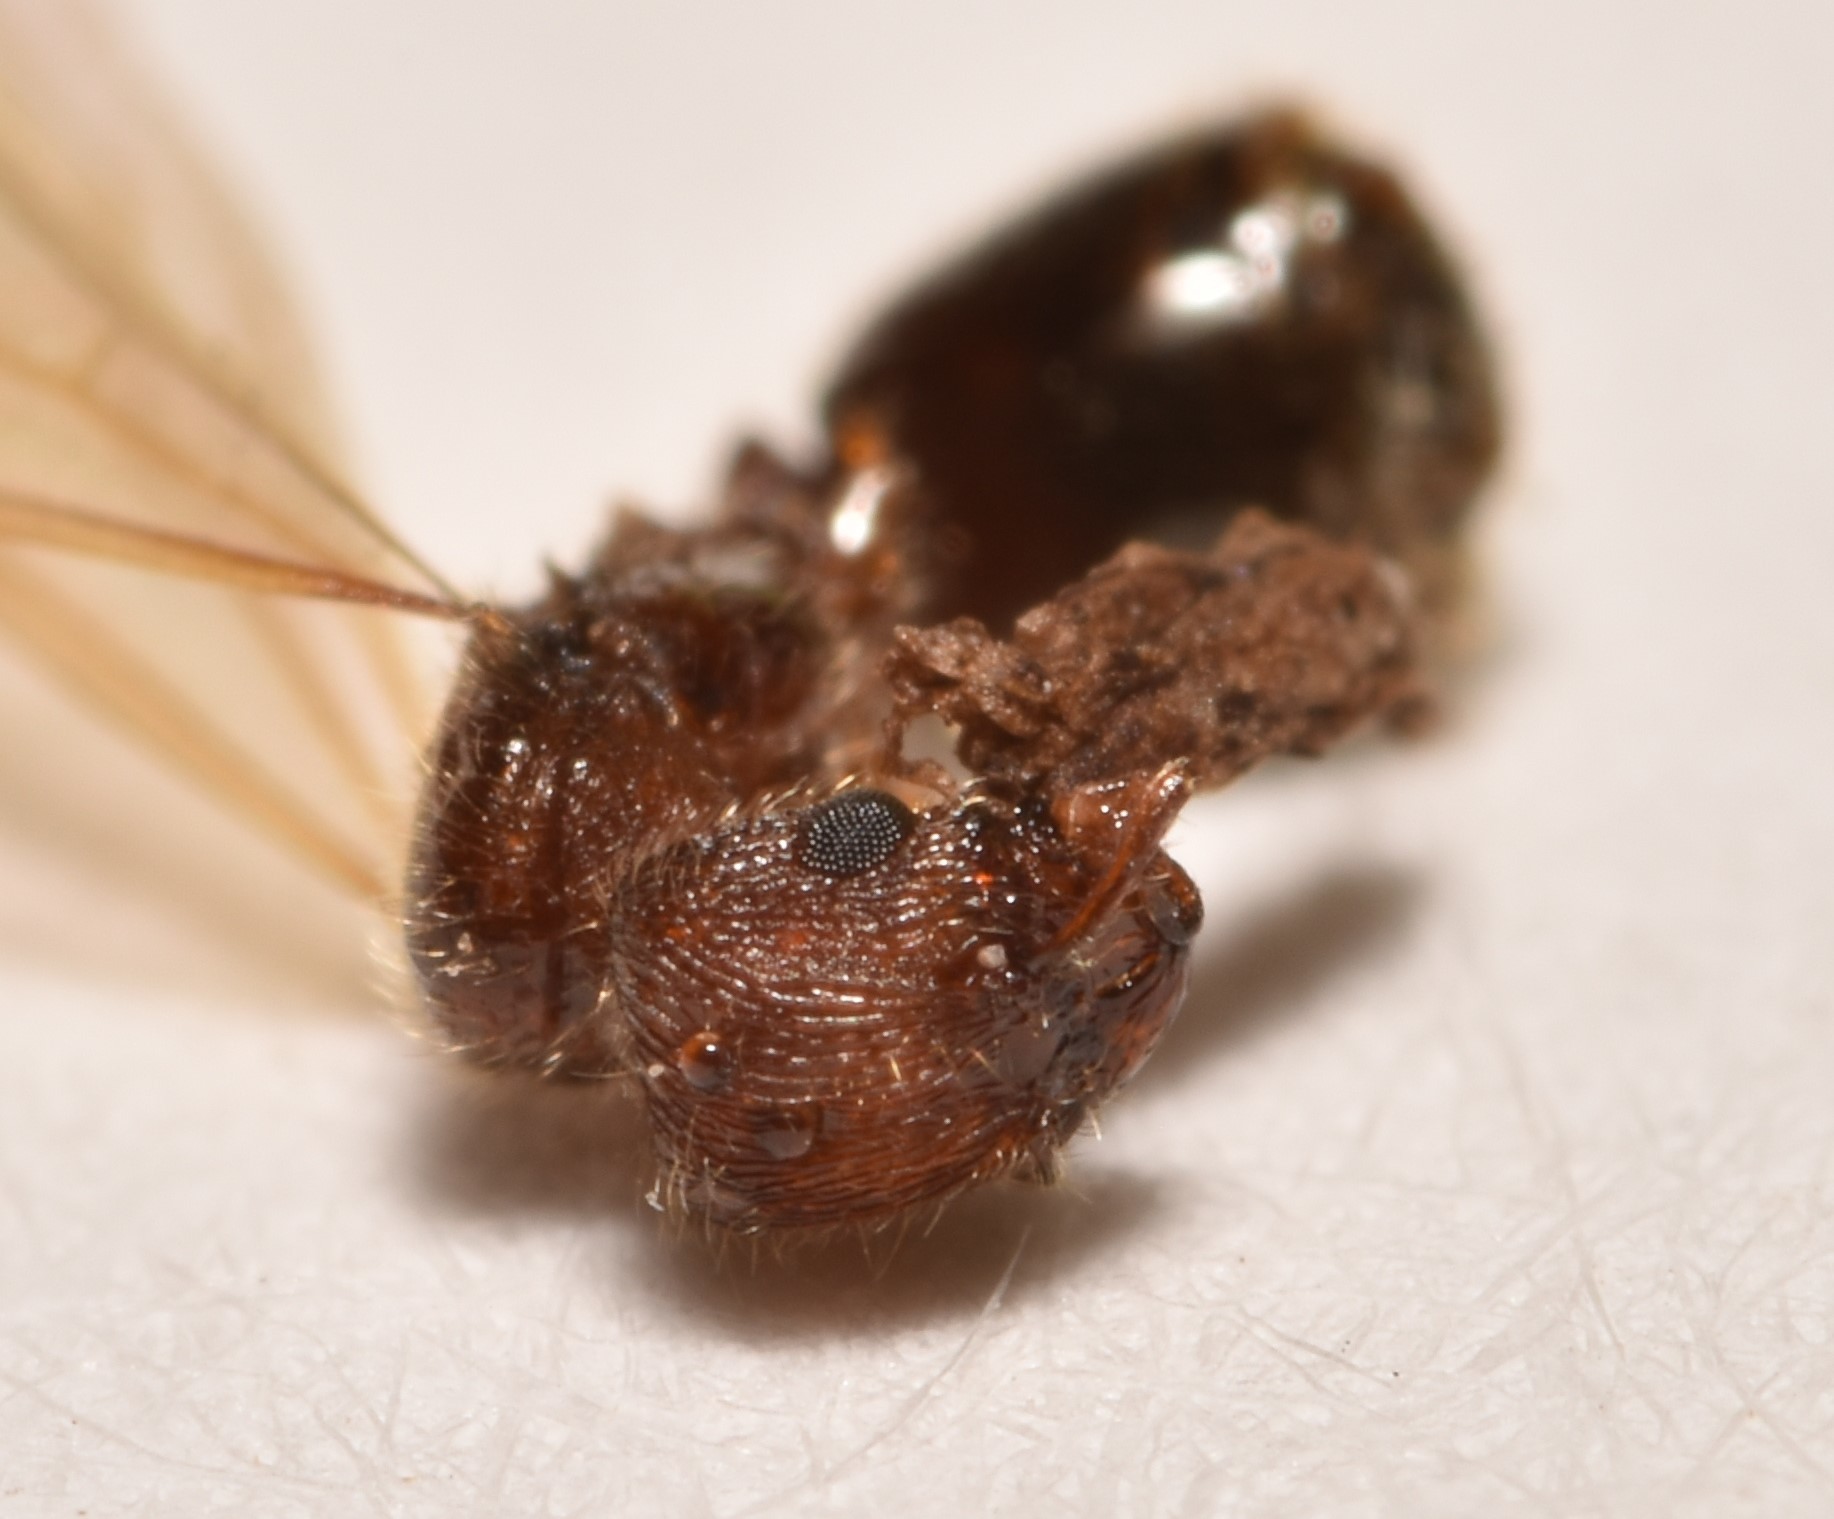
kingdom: Animalia
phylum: Arthropoda
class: Insecta
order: Hymenoptera
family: Formicidae
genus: Pheidole
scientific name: Pheidole metallescens
